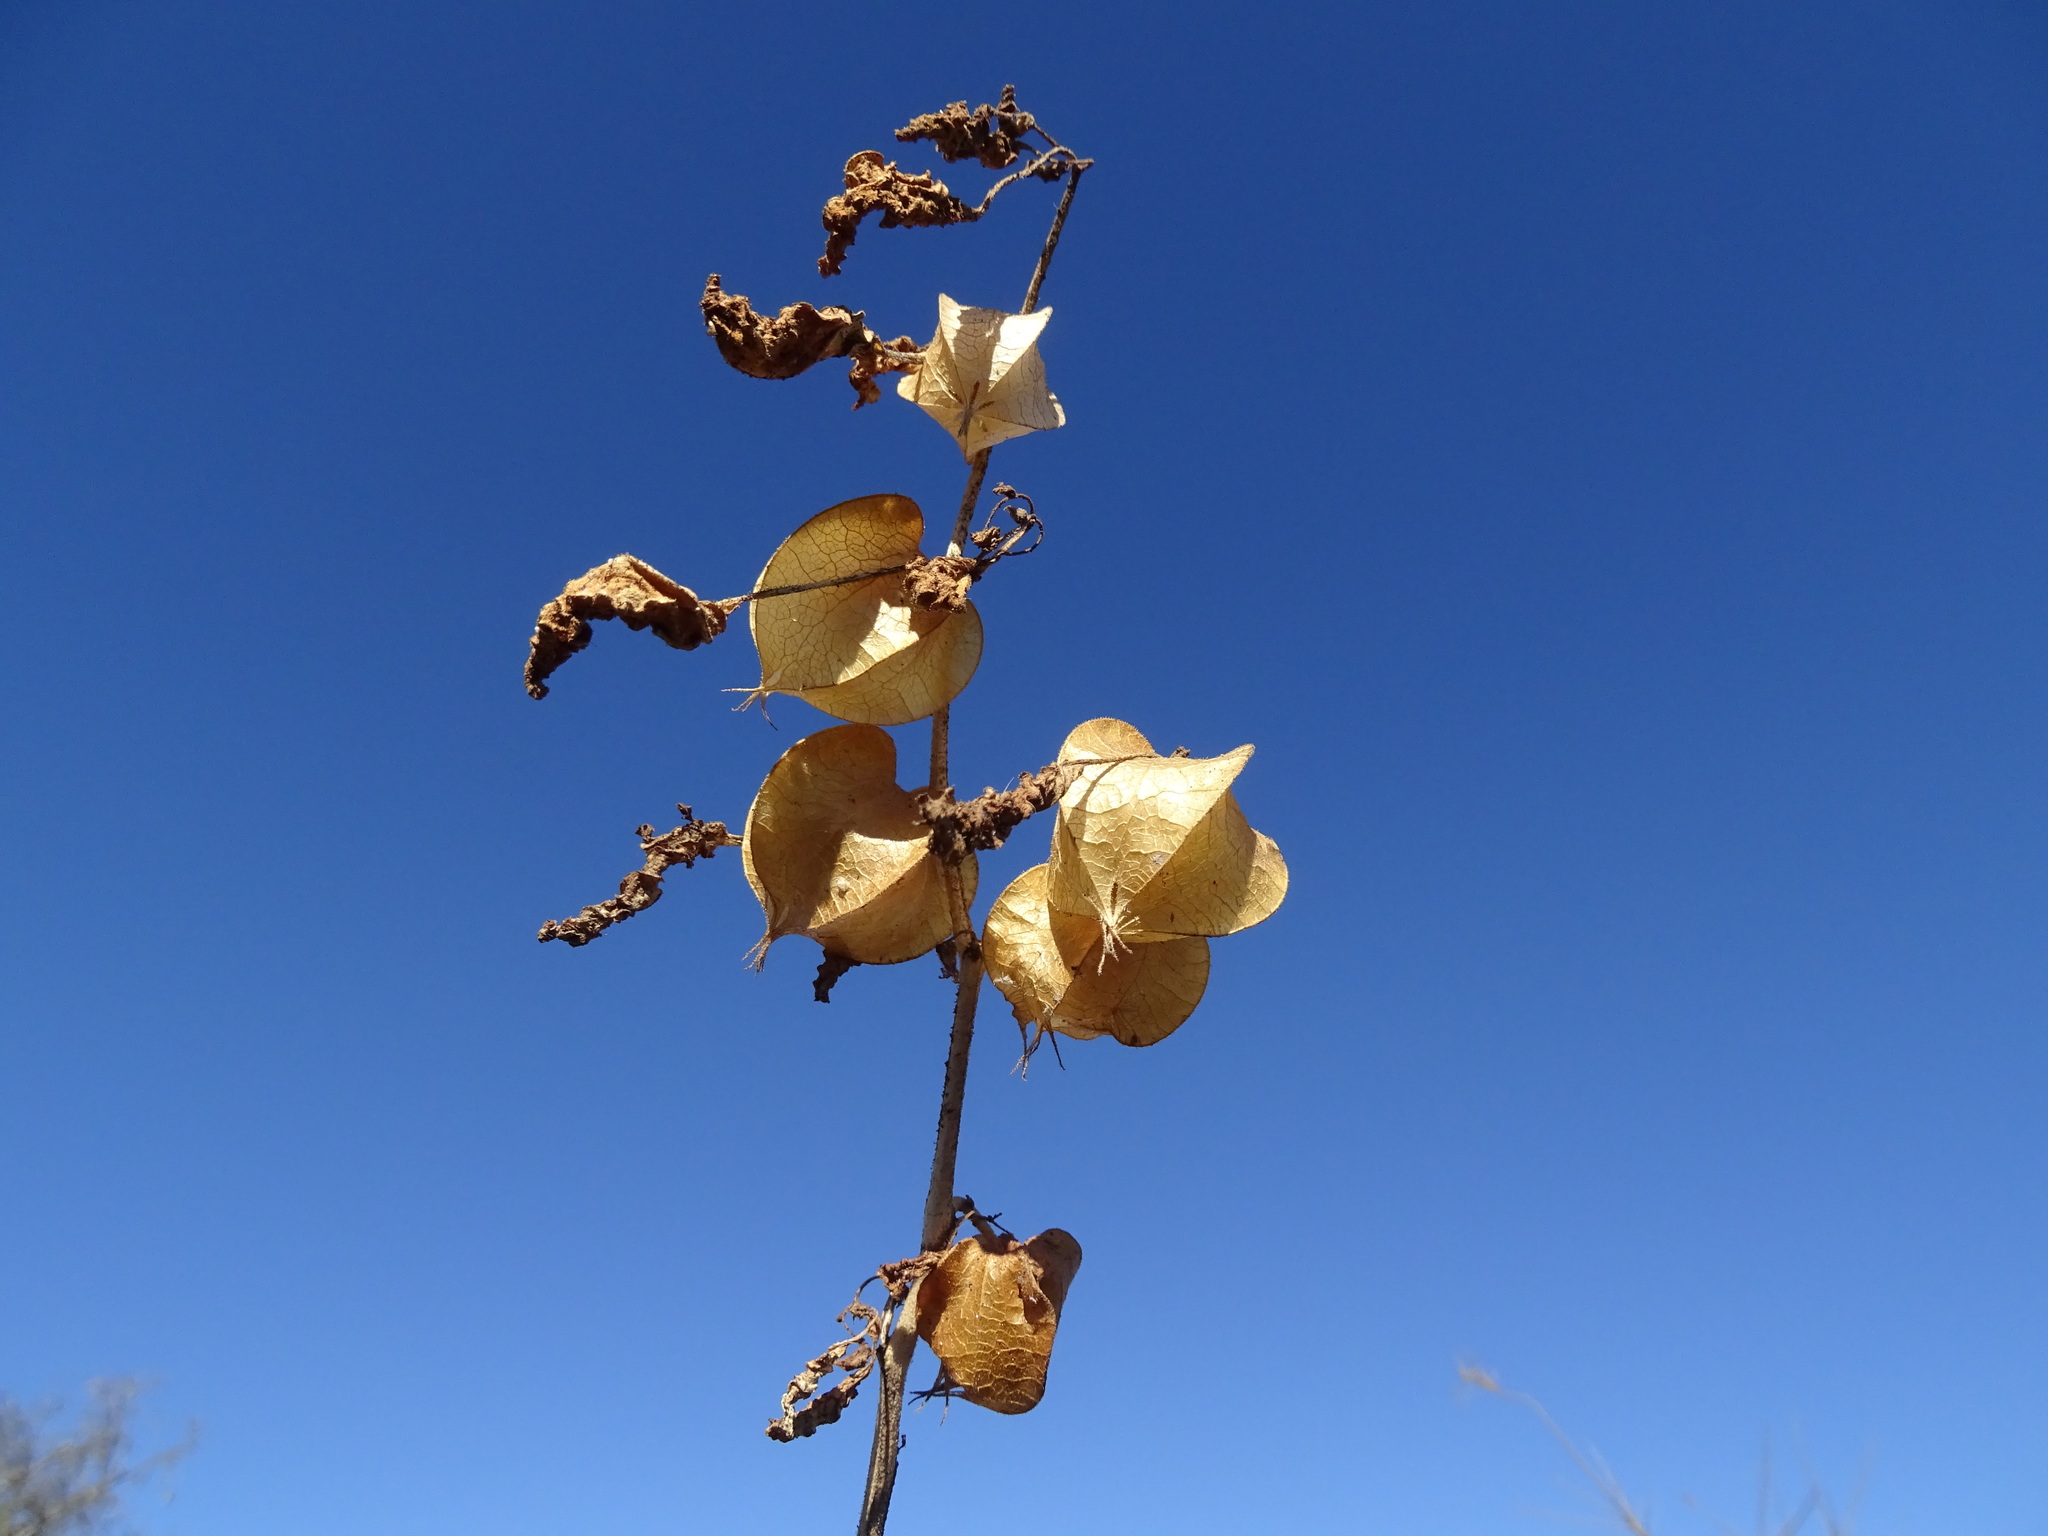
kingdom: Plantae
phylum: Tracheophyta
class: Magnoliopsida
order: Solanales
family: Solanaceae
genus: Physalis
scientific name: Physalis nicandroides
